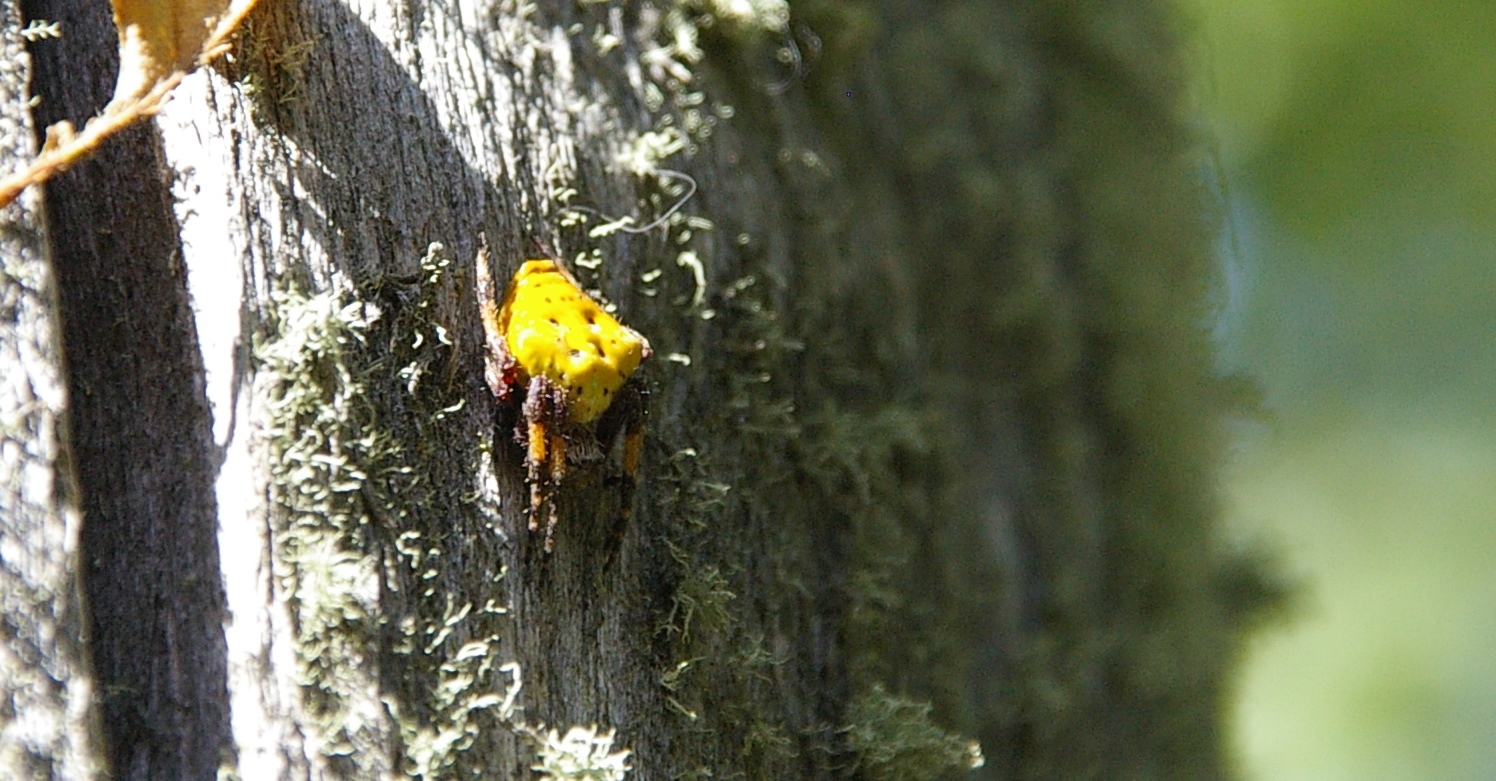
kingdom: Animalia
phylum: Arthropoda
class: Arachnida
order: Araneae
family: Araneidae
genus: Molinaranea
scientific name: Molinaranea magellanica
